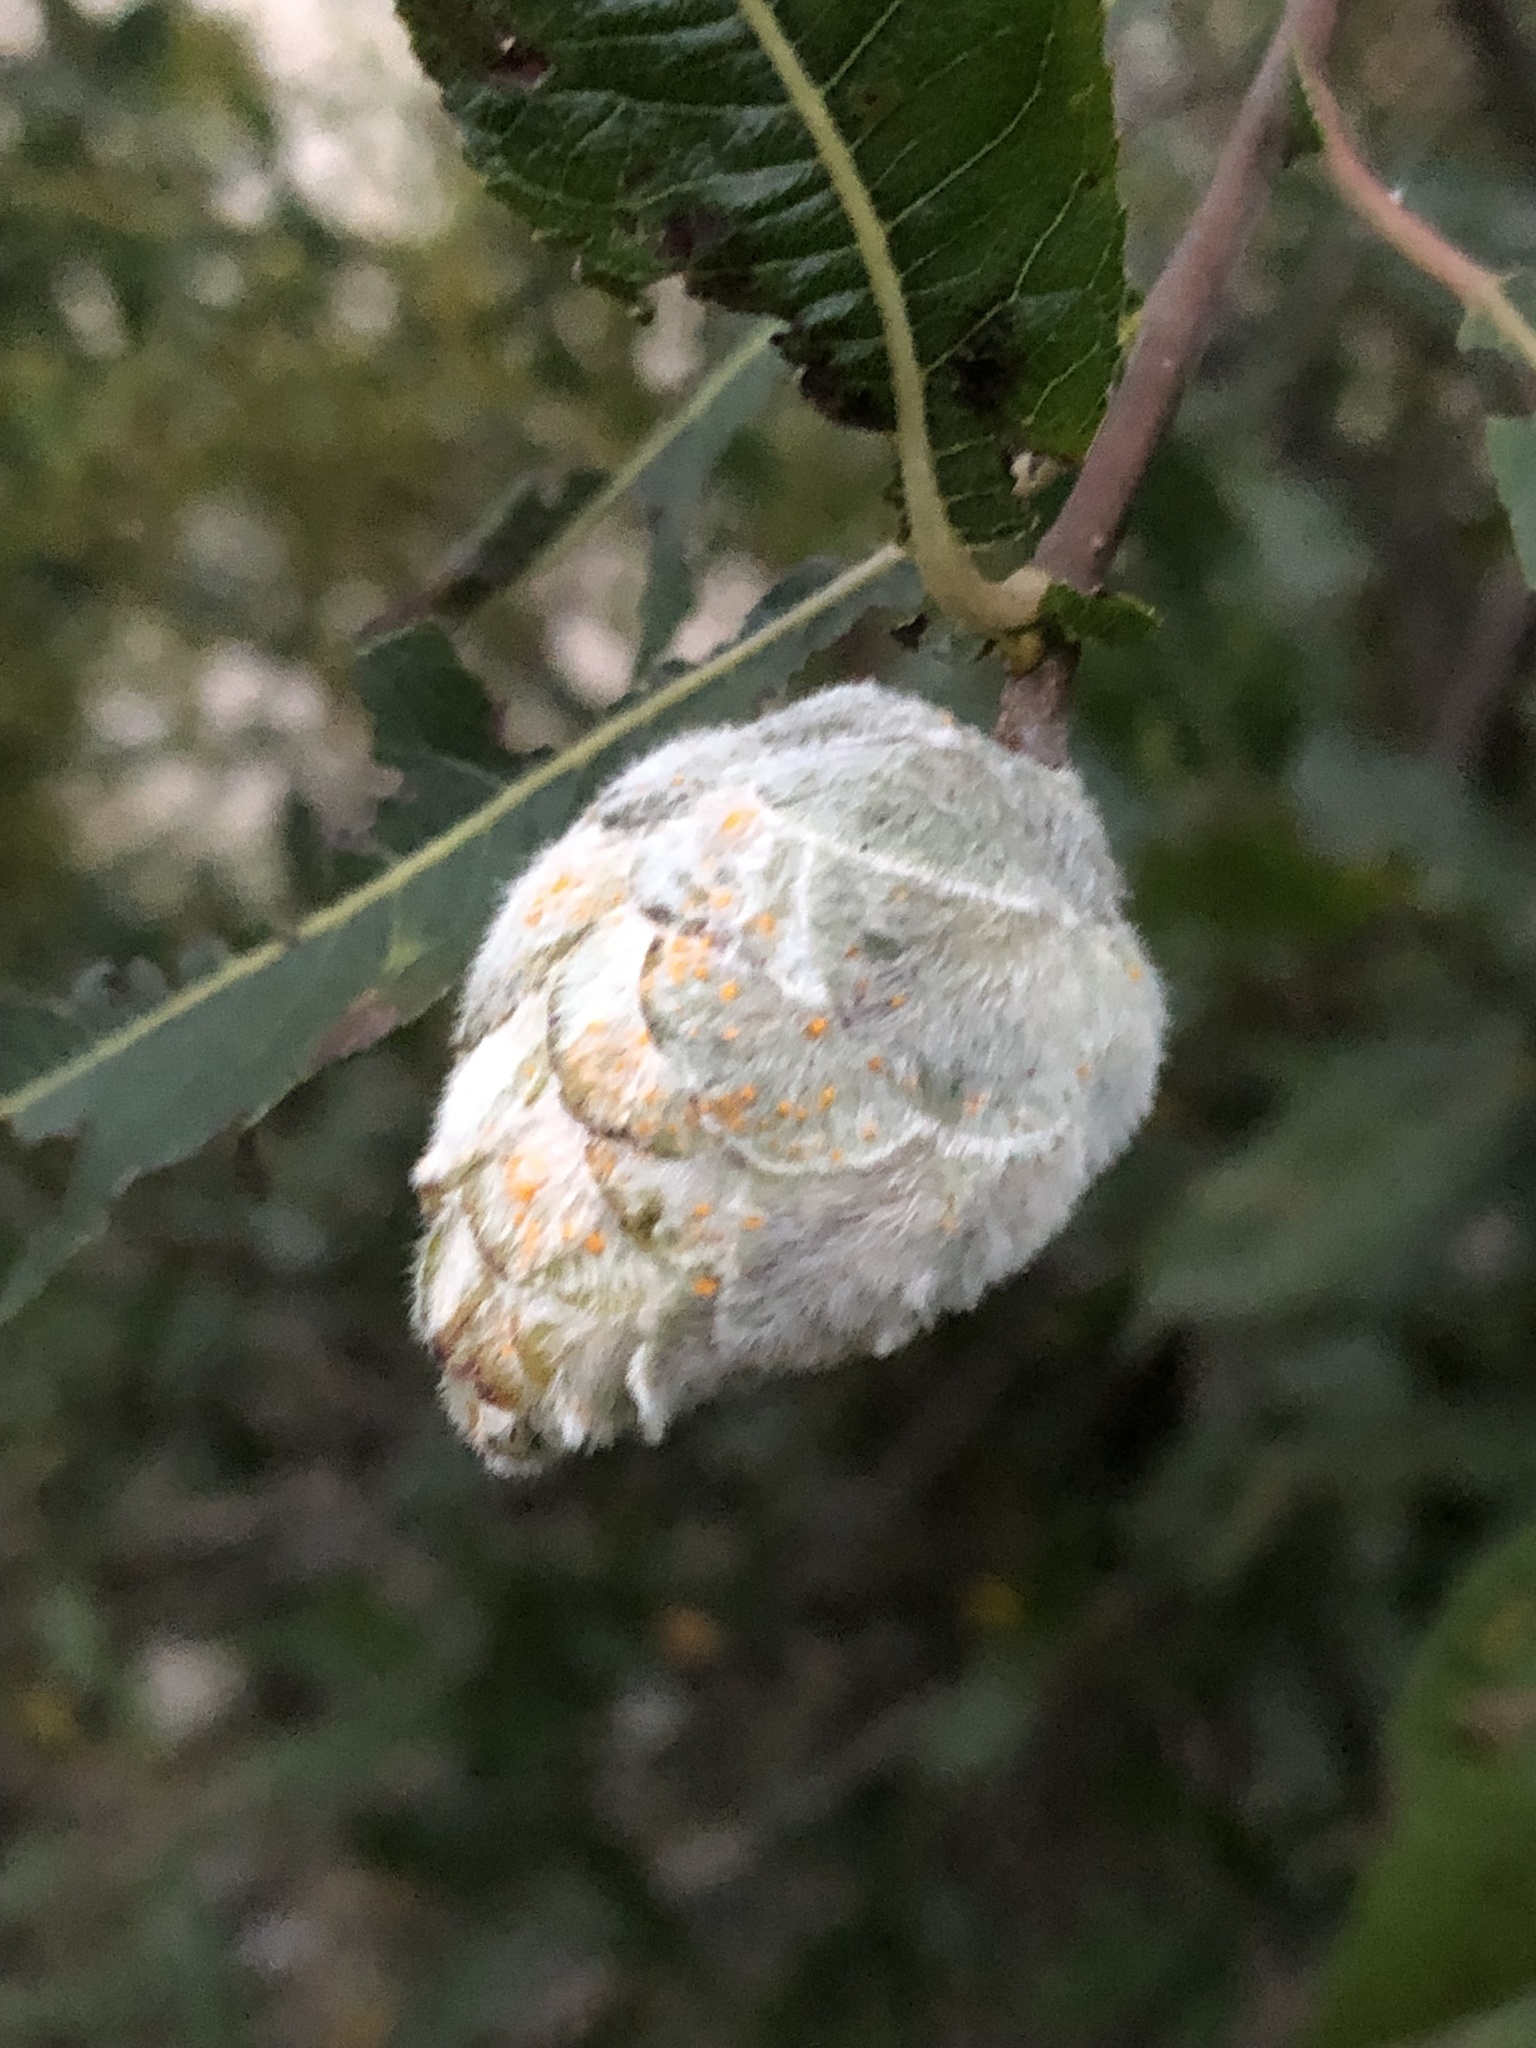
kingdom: Animalia
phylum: Arthropoda
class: Insecta
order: Diptera
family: Cecidomyiidae
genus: Rabdophaga
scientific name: Rabdophaga strobiloides
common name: Willow pinecone gall midge
